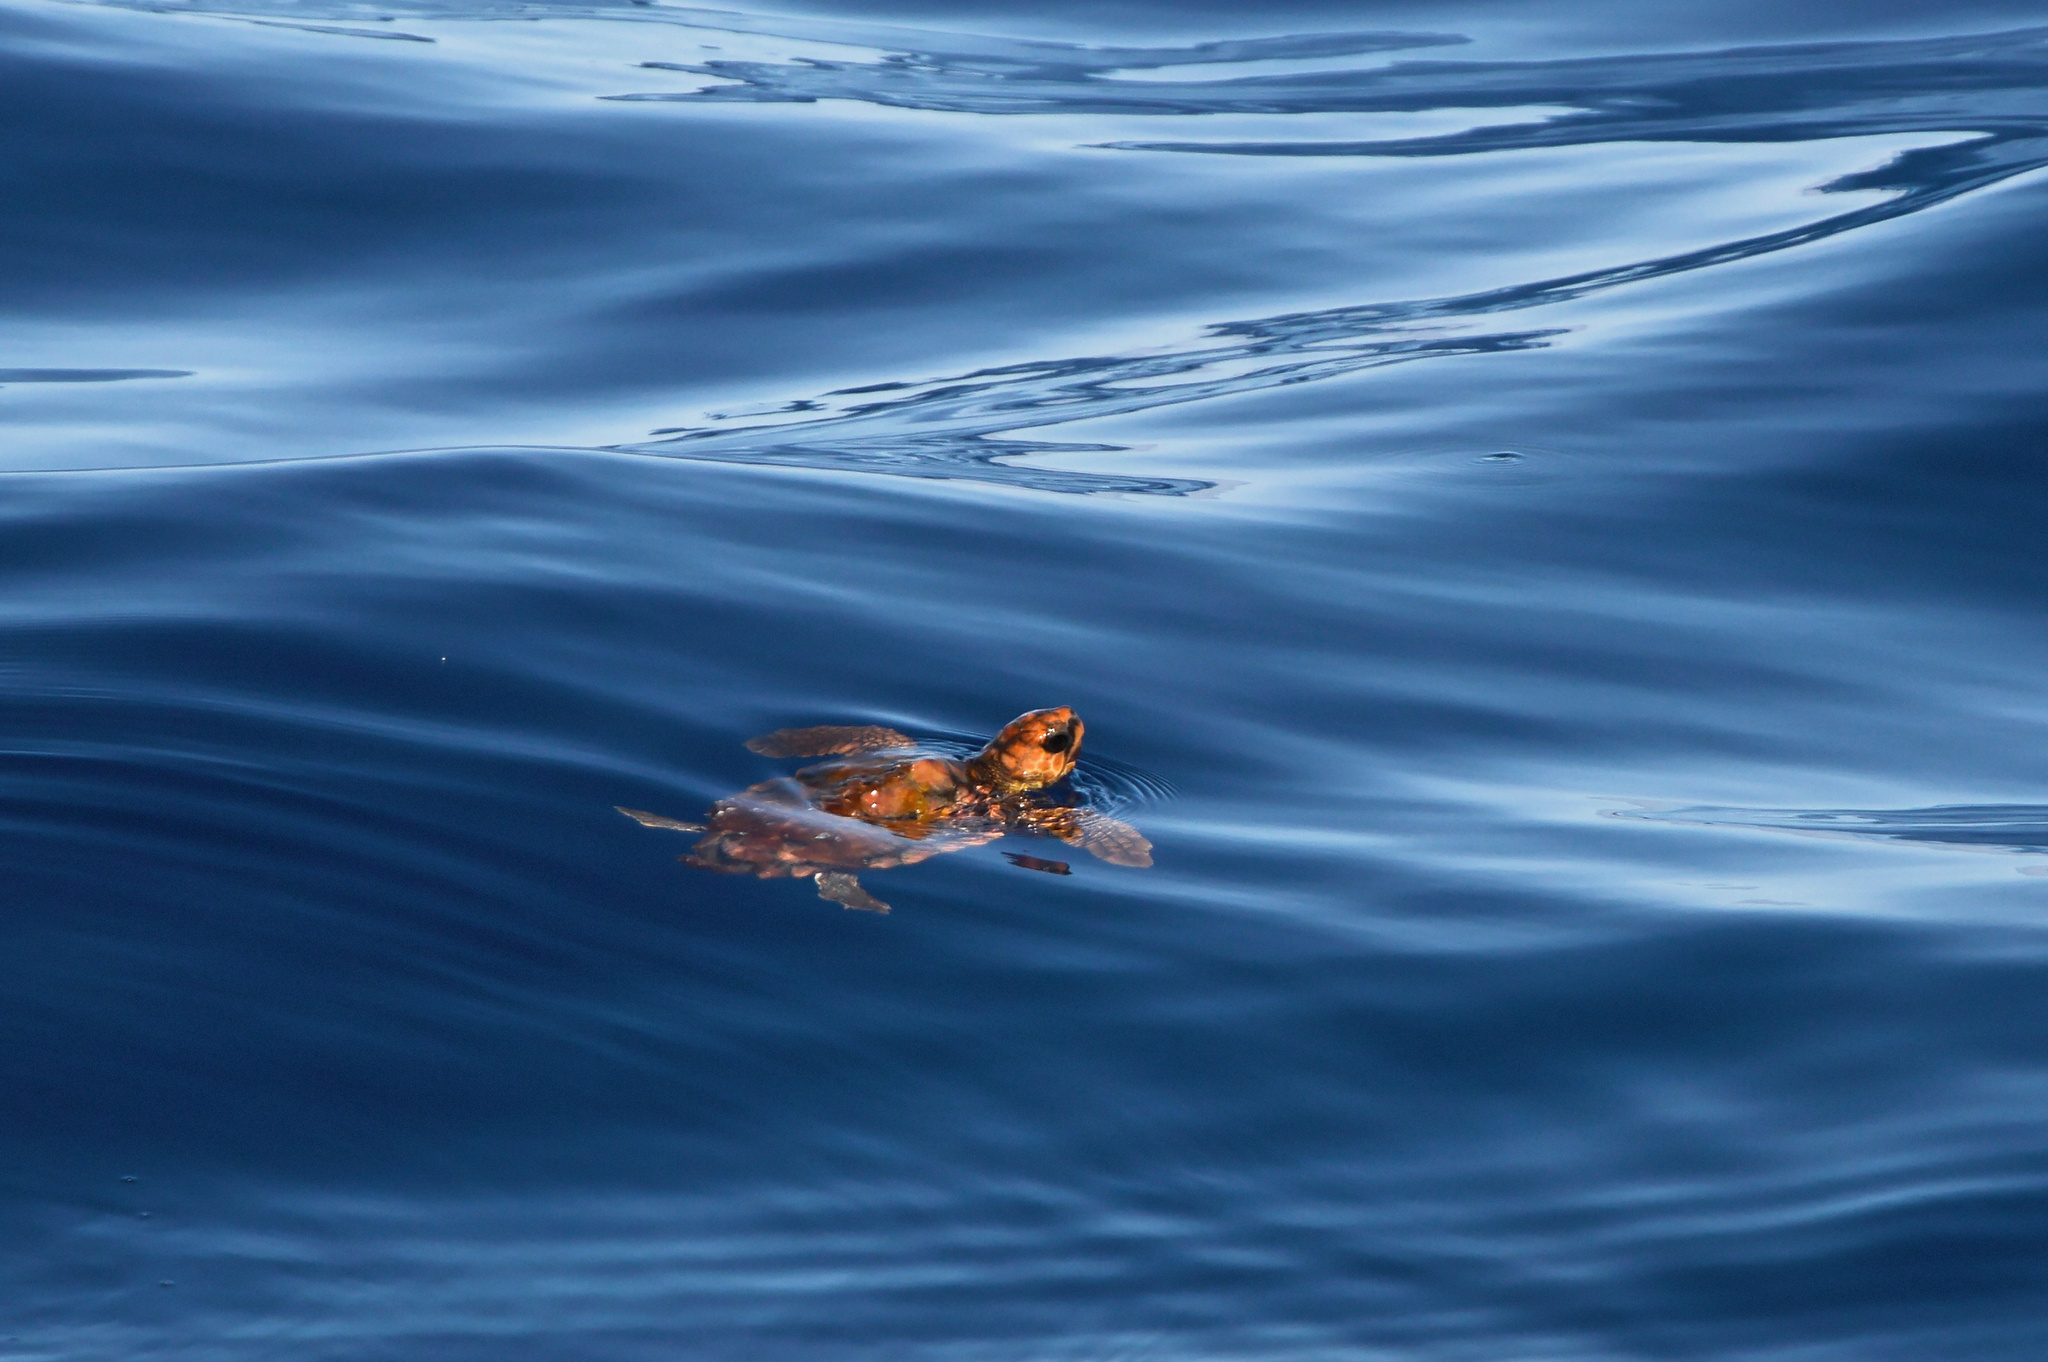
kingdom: Animalia
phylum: Chordata
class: Testudines
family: Cheloniidae
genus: Caretta
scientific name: Caretta caretta
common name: Loggerhead sea turtle
